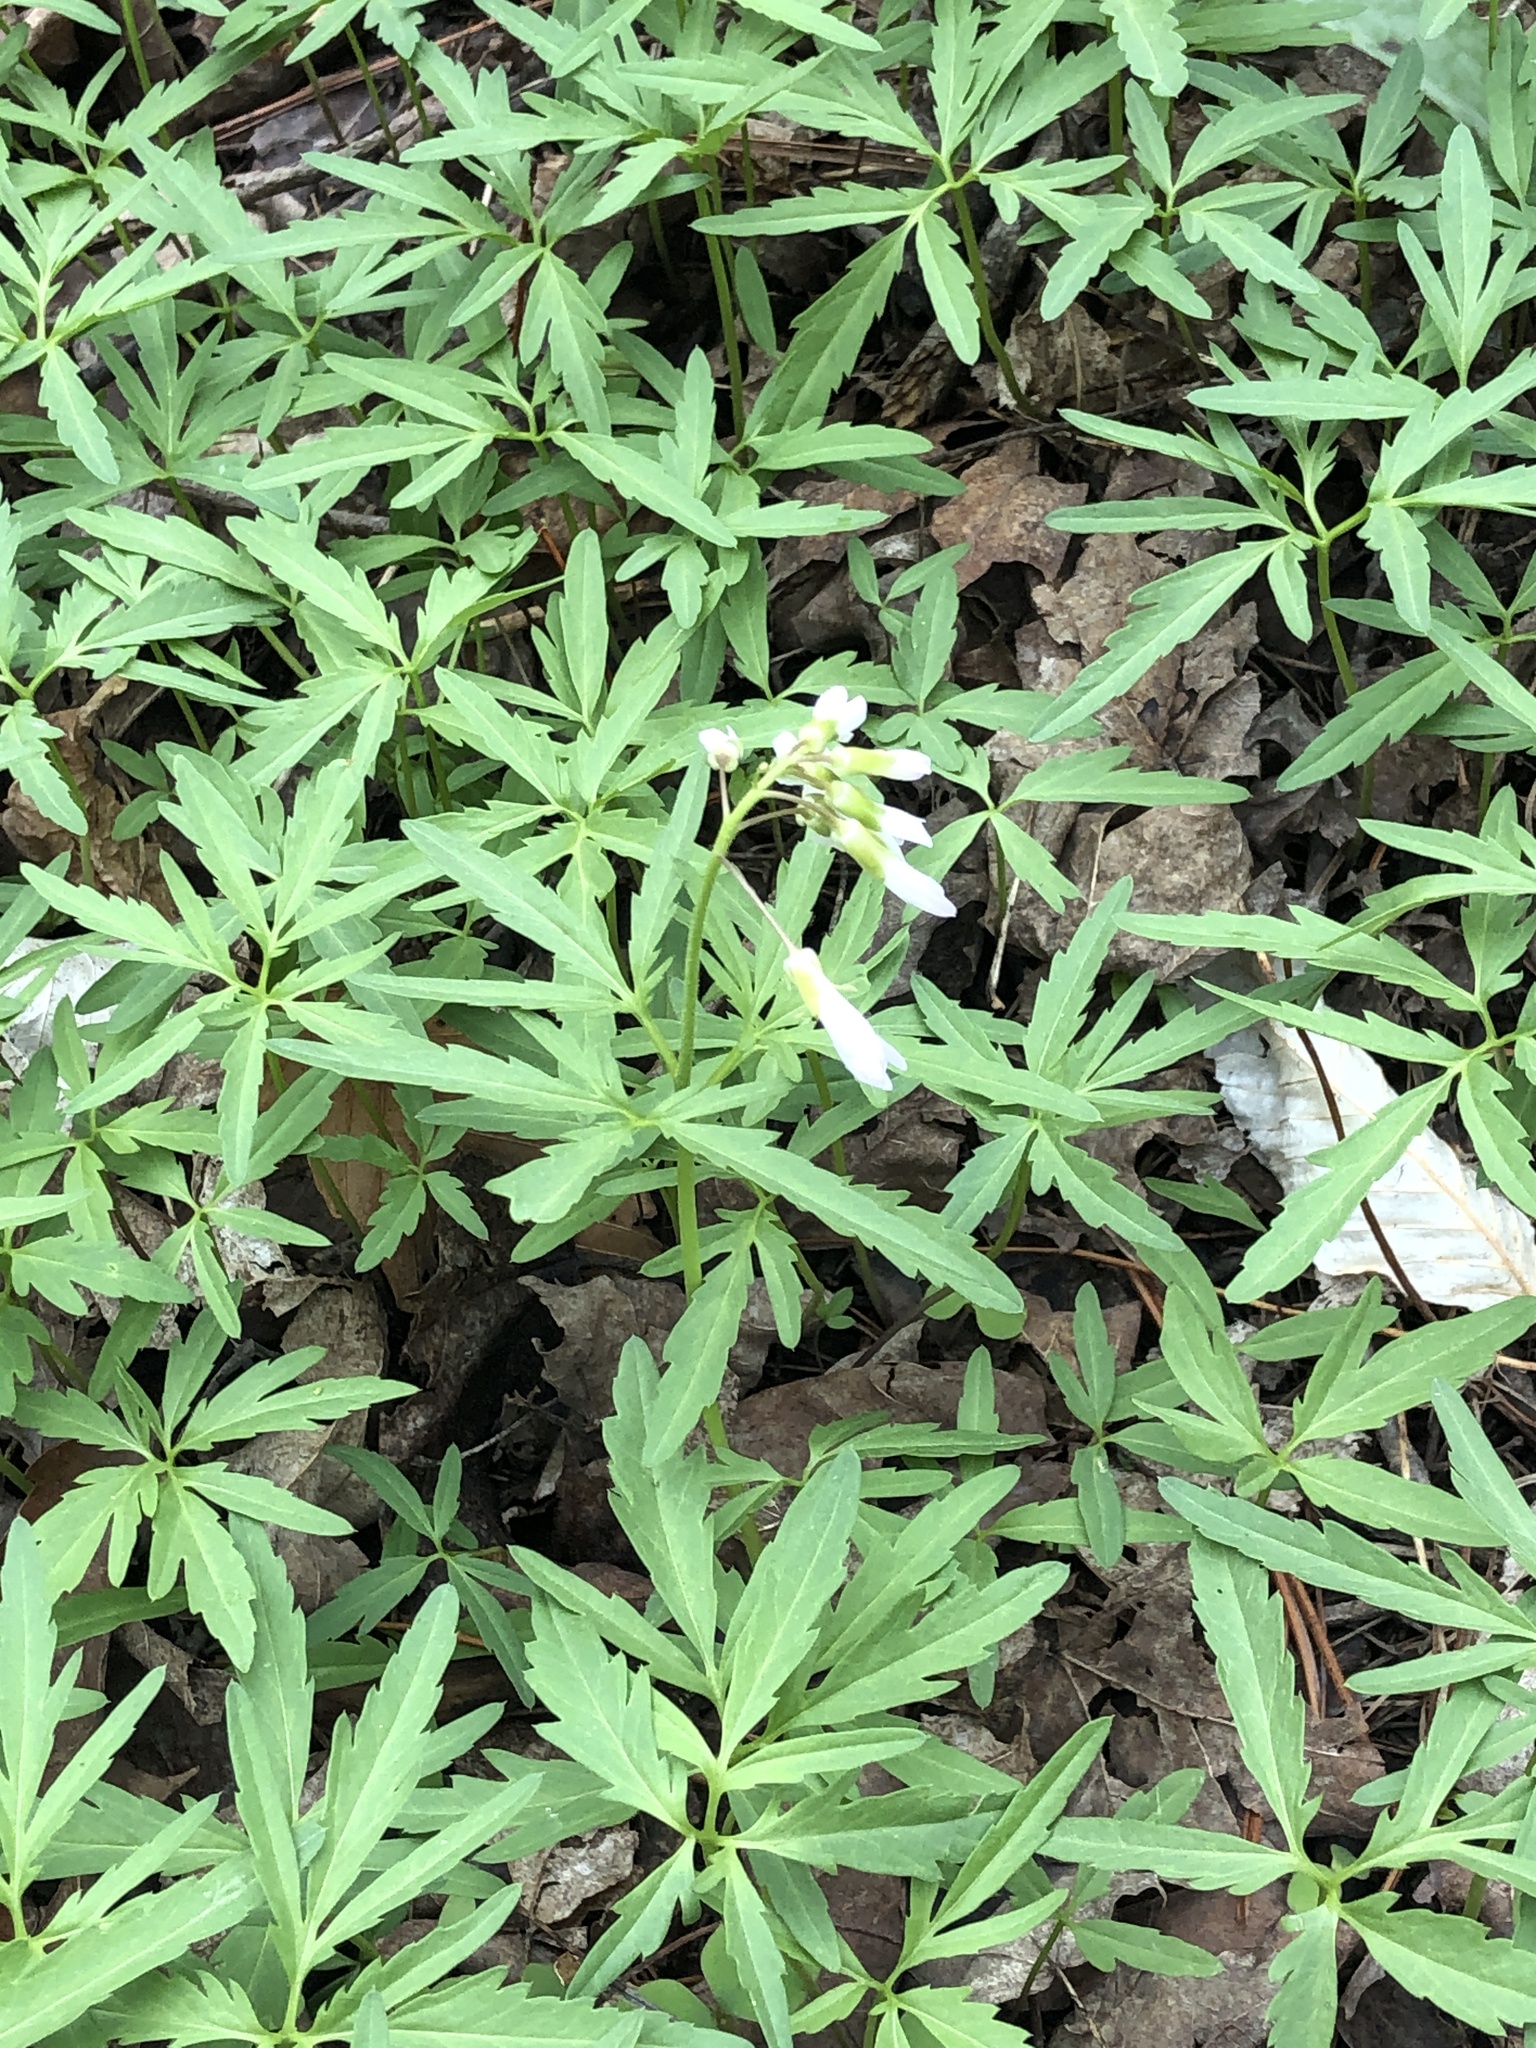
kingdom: Plantae
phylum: Tracheophyta
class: Magnoliopsida
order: Brassicales
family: Brassicaceae
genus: Cardamine
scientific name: Cardamine concatenata
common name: Cut-leaf toothcup
